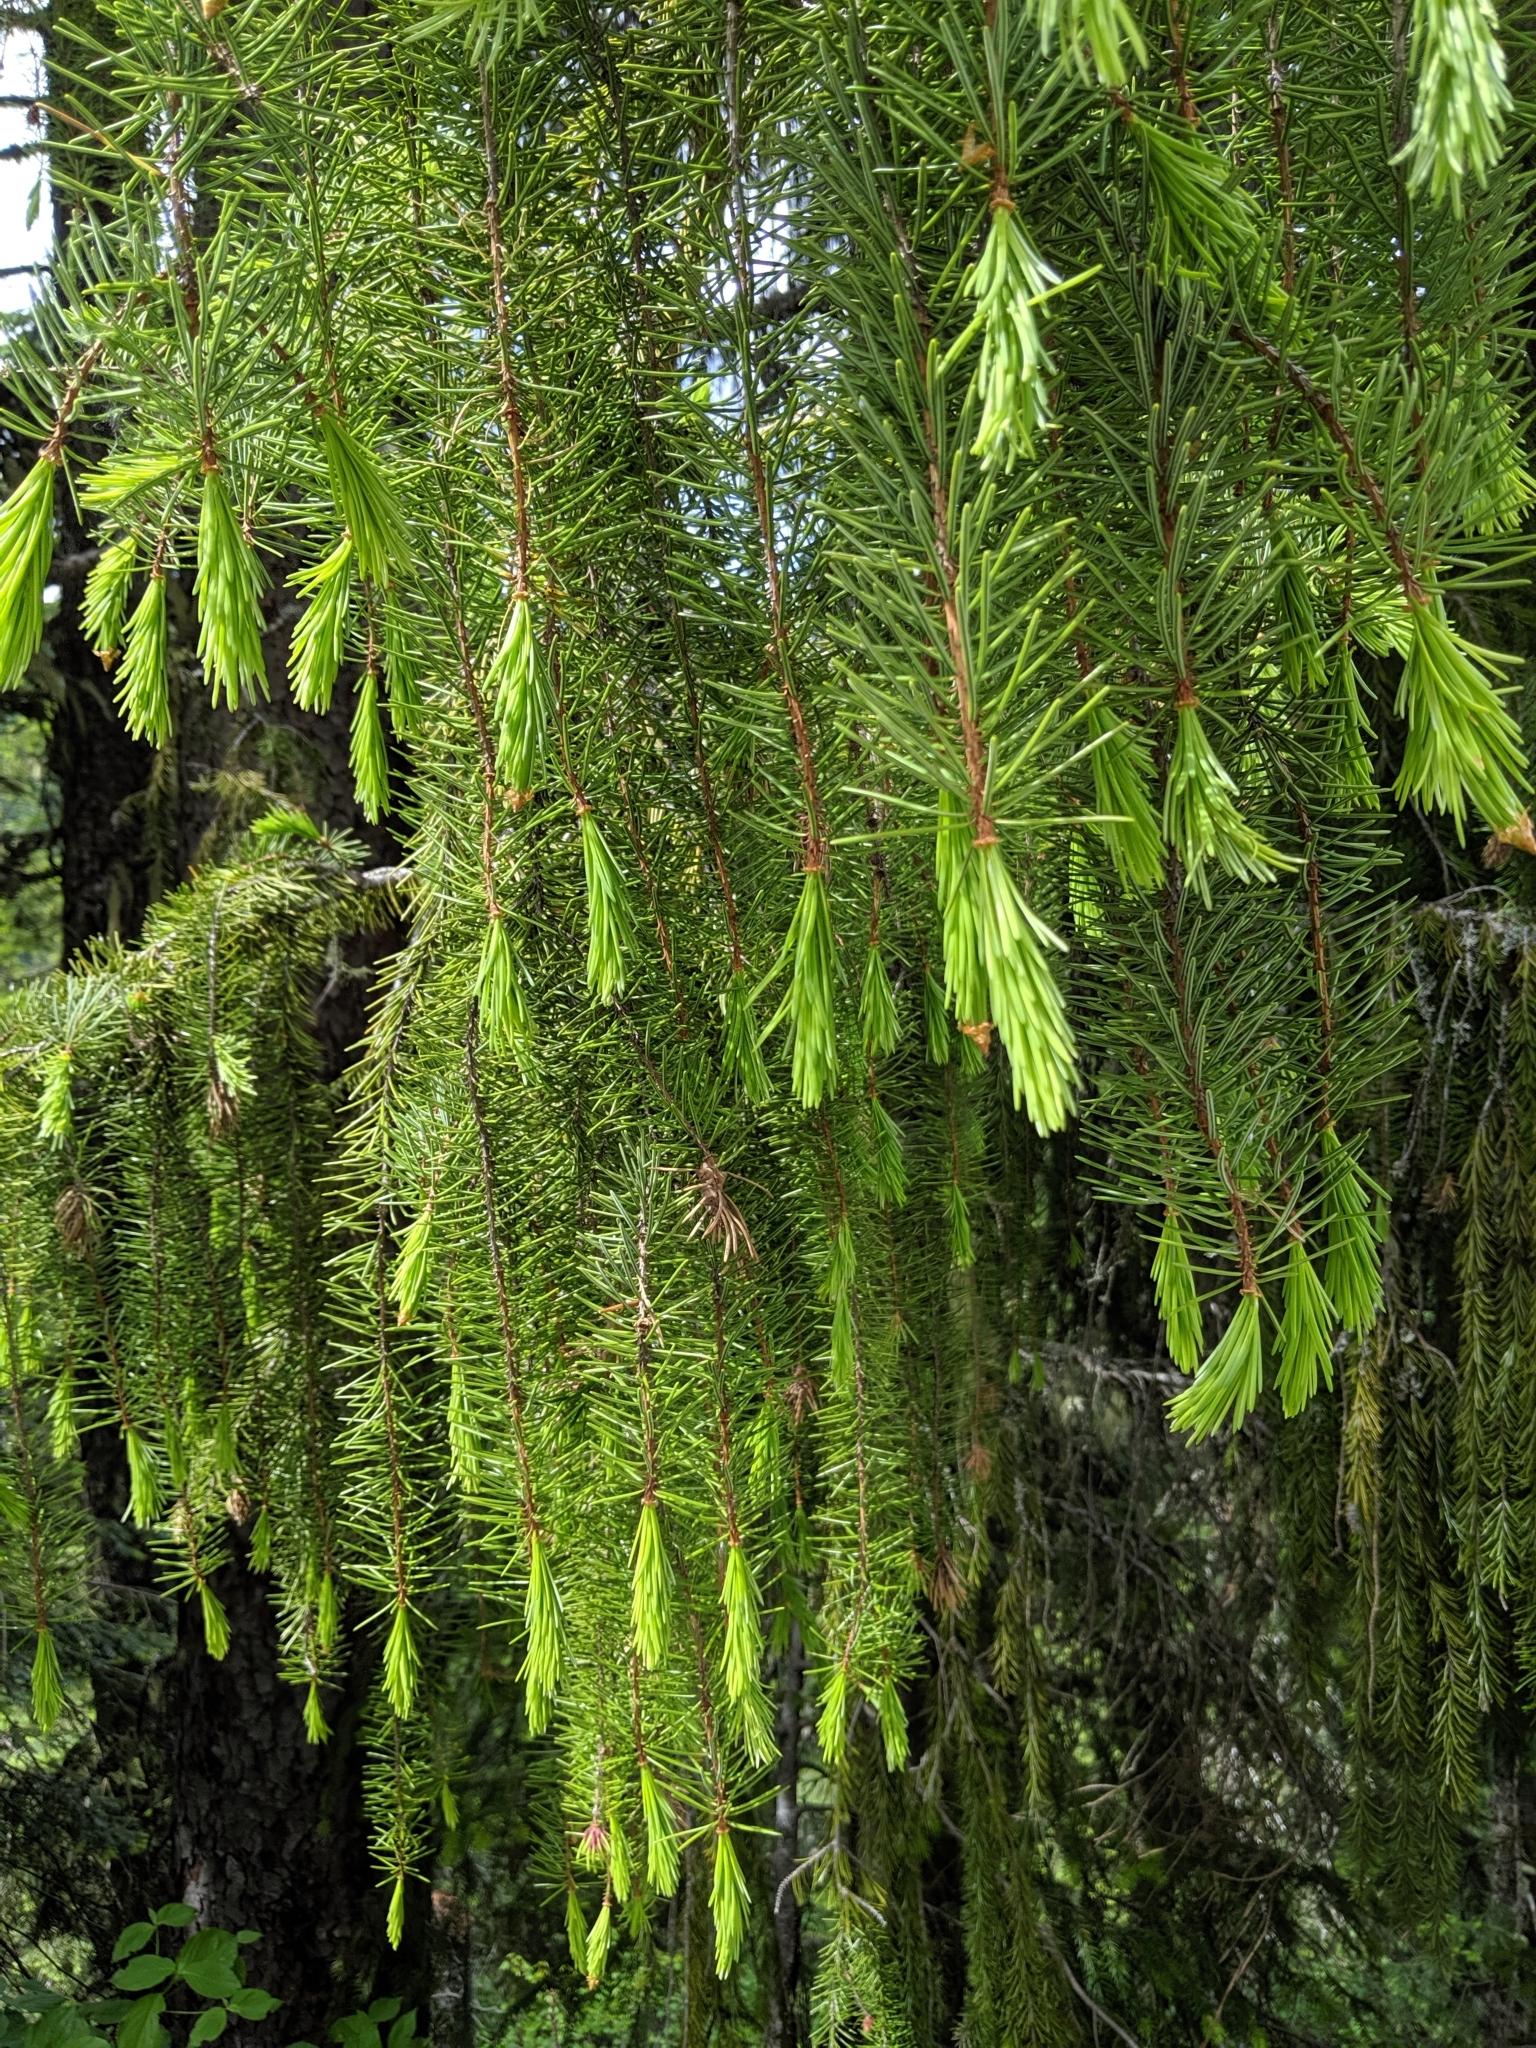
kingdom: Plantae
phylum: Tracheophyta
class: Pinopsida
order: Pinales
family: Pinaceae
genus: Picea
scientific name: Picea breweriana
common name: Brewer's spruce
